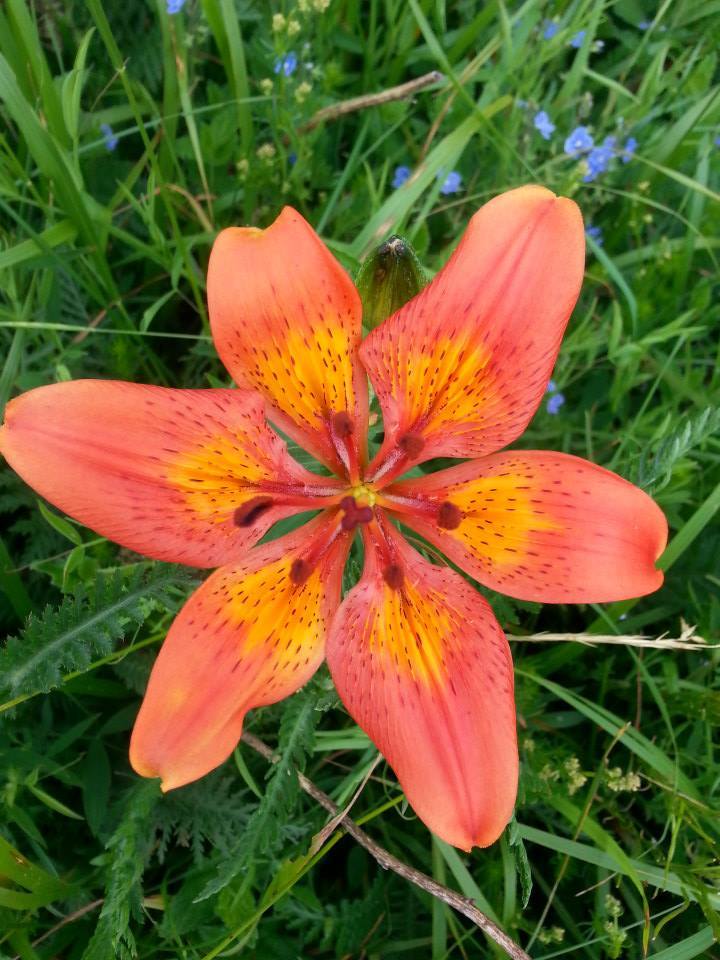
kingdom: Plantae
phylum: Tracheophyta
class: Liliopsida
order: Liliales
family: Liliaceae
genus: Lilium
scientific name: Lilium bulbiferum
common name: Orange lily
